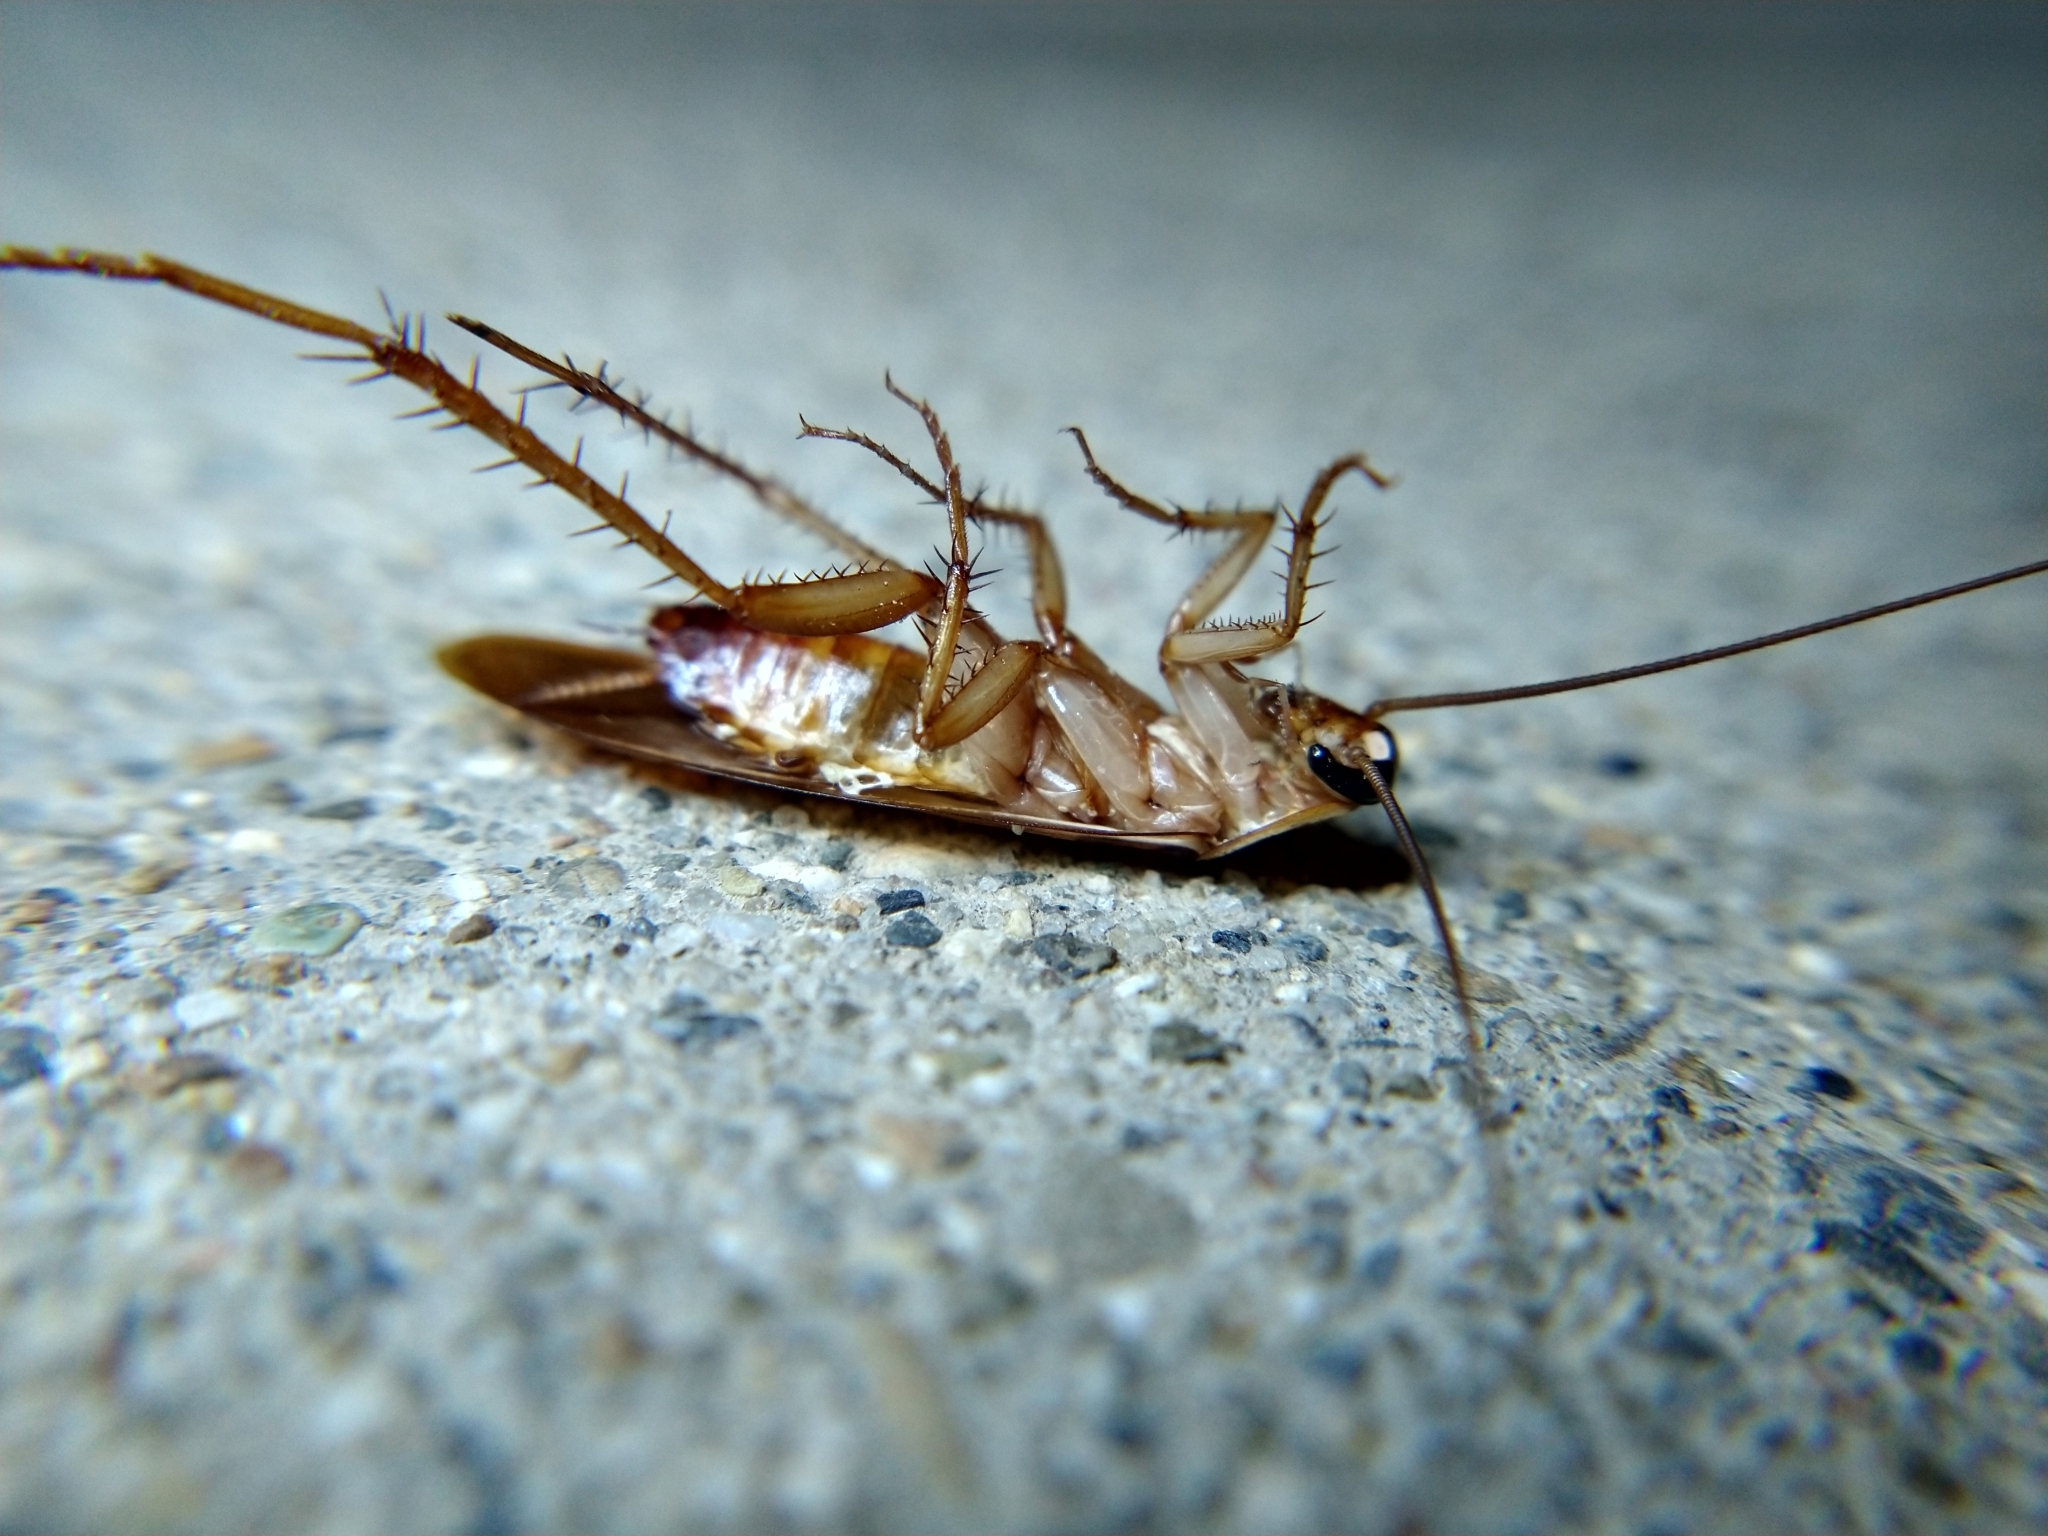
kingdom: Animalia
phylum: Arthropoda
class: Insecta
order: Blattodea
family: Blattidae
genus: Periplaneta
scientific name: Periplaneta lateralis
